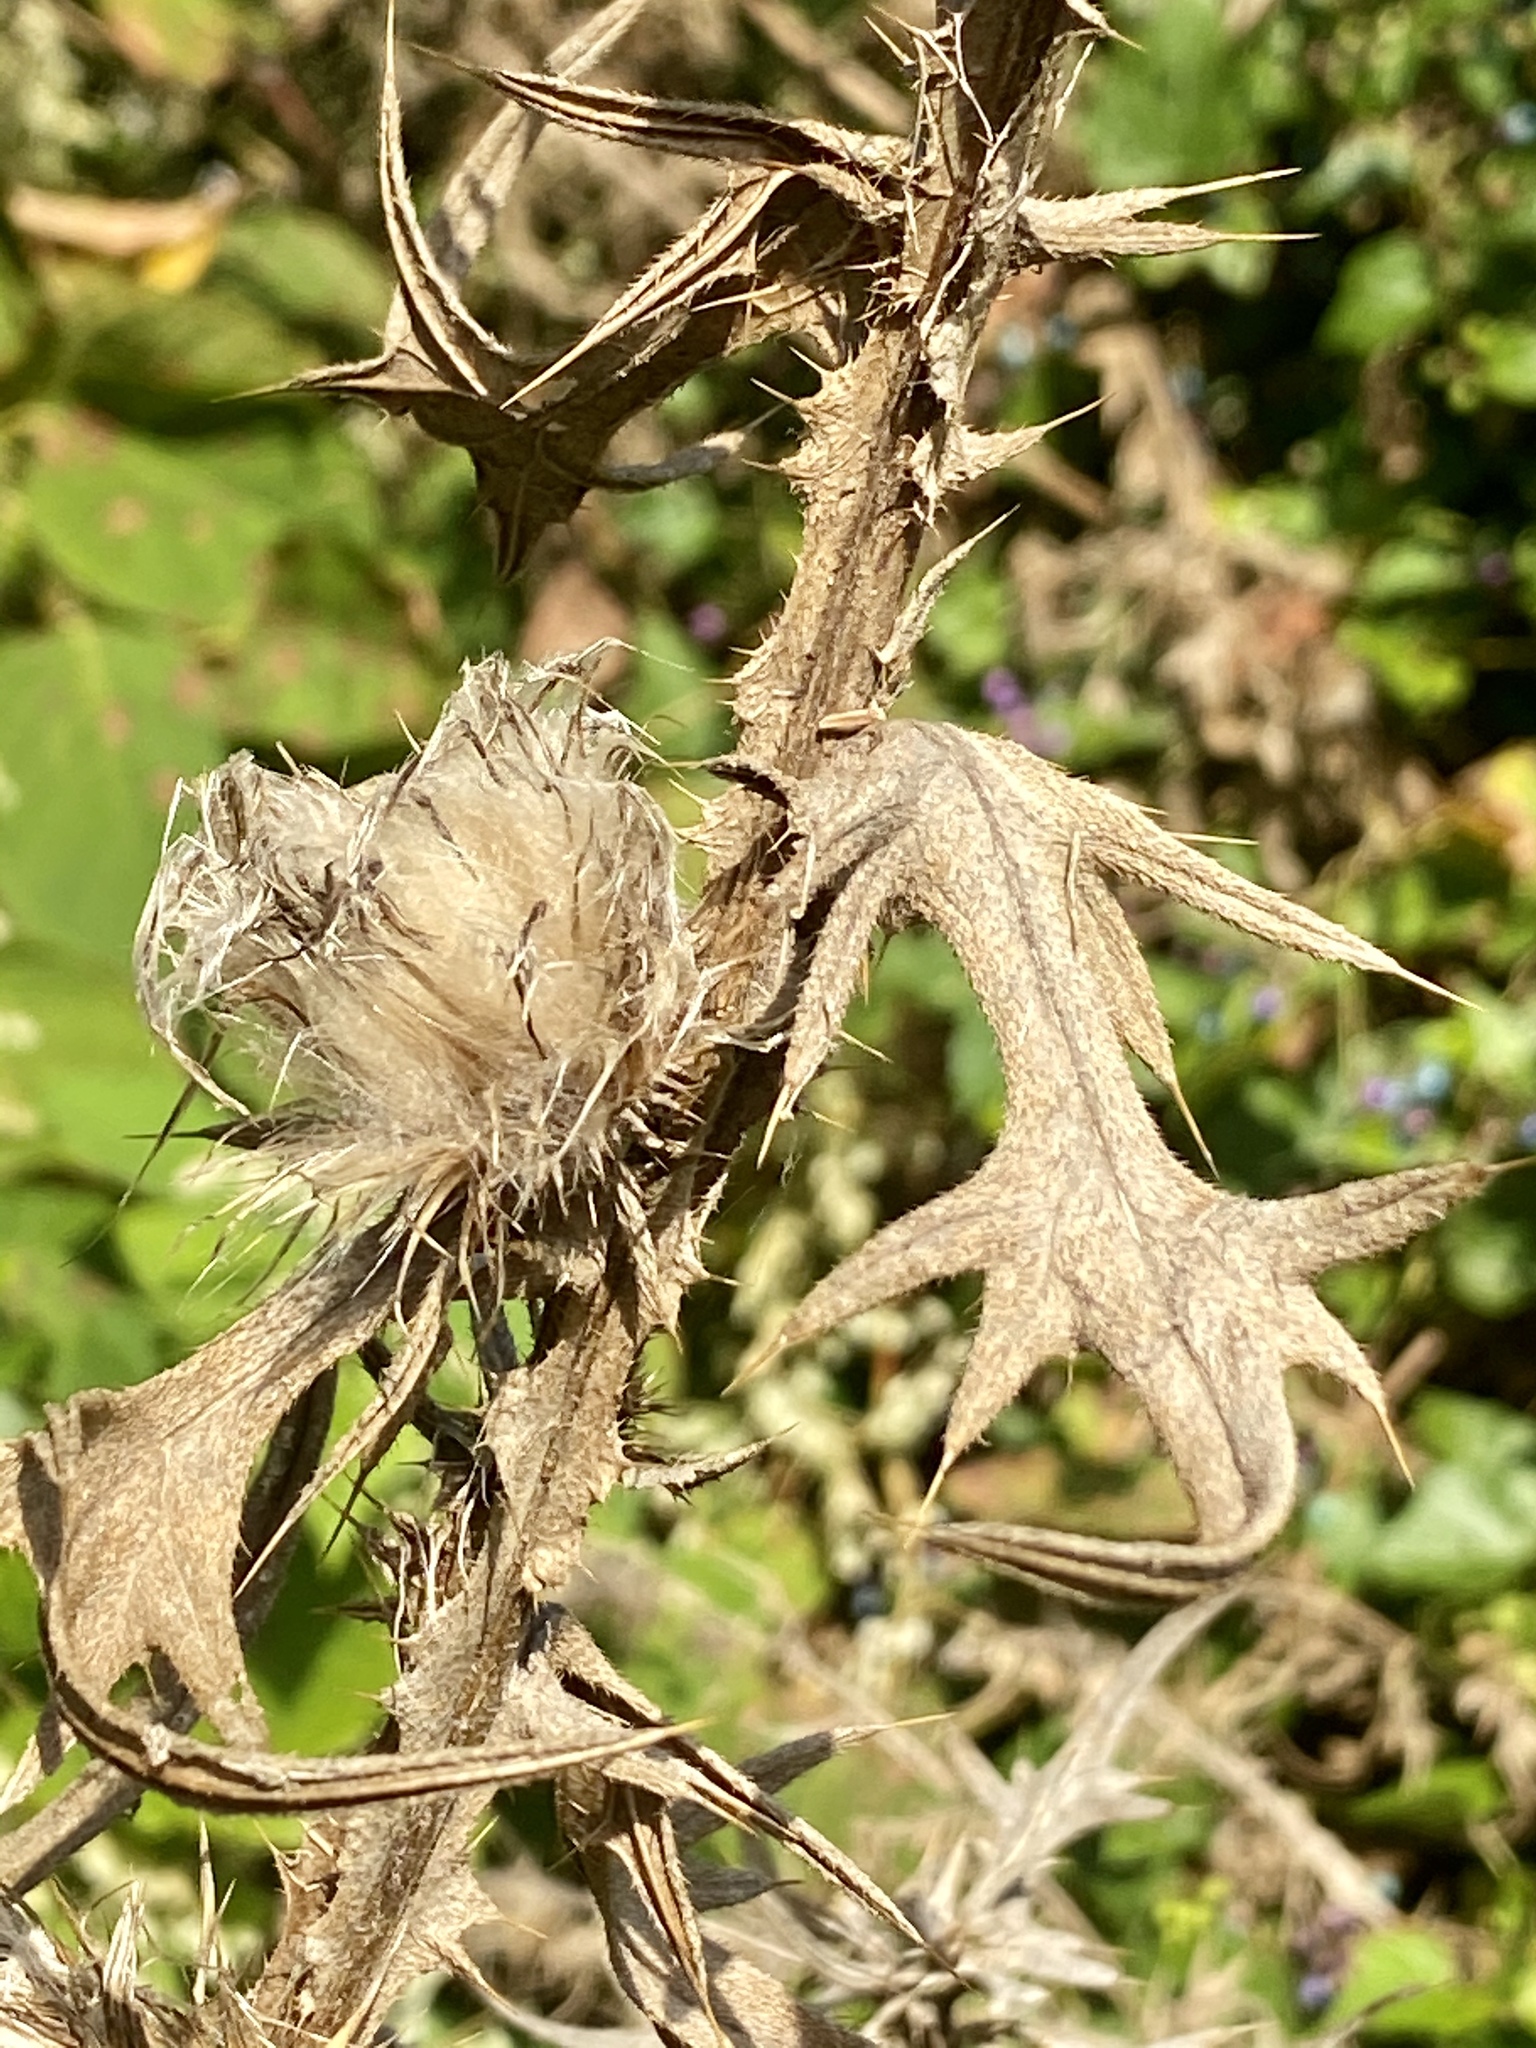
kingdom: Plantae
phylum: Tracheophyta
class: Magnoliopsida
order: Asterales
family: Asteraceae
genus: Cirsium
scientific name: Cirsium vulgare
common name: Bull thistle
